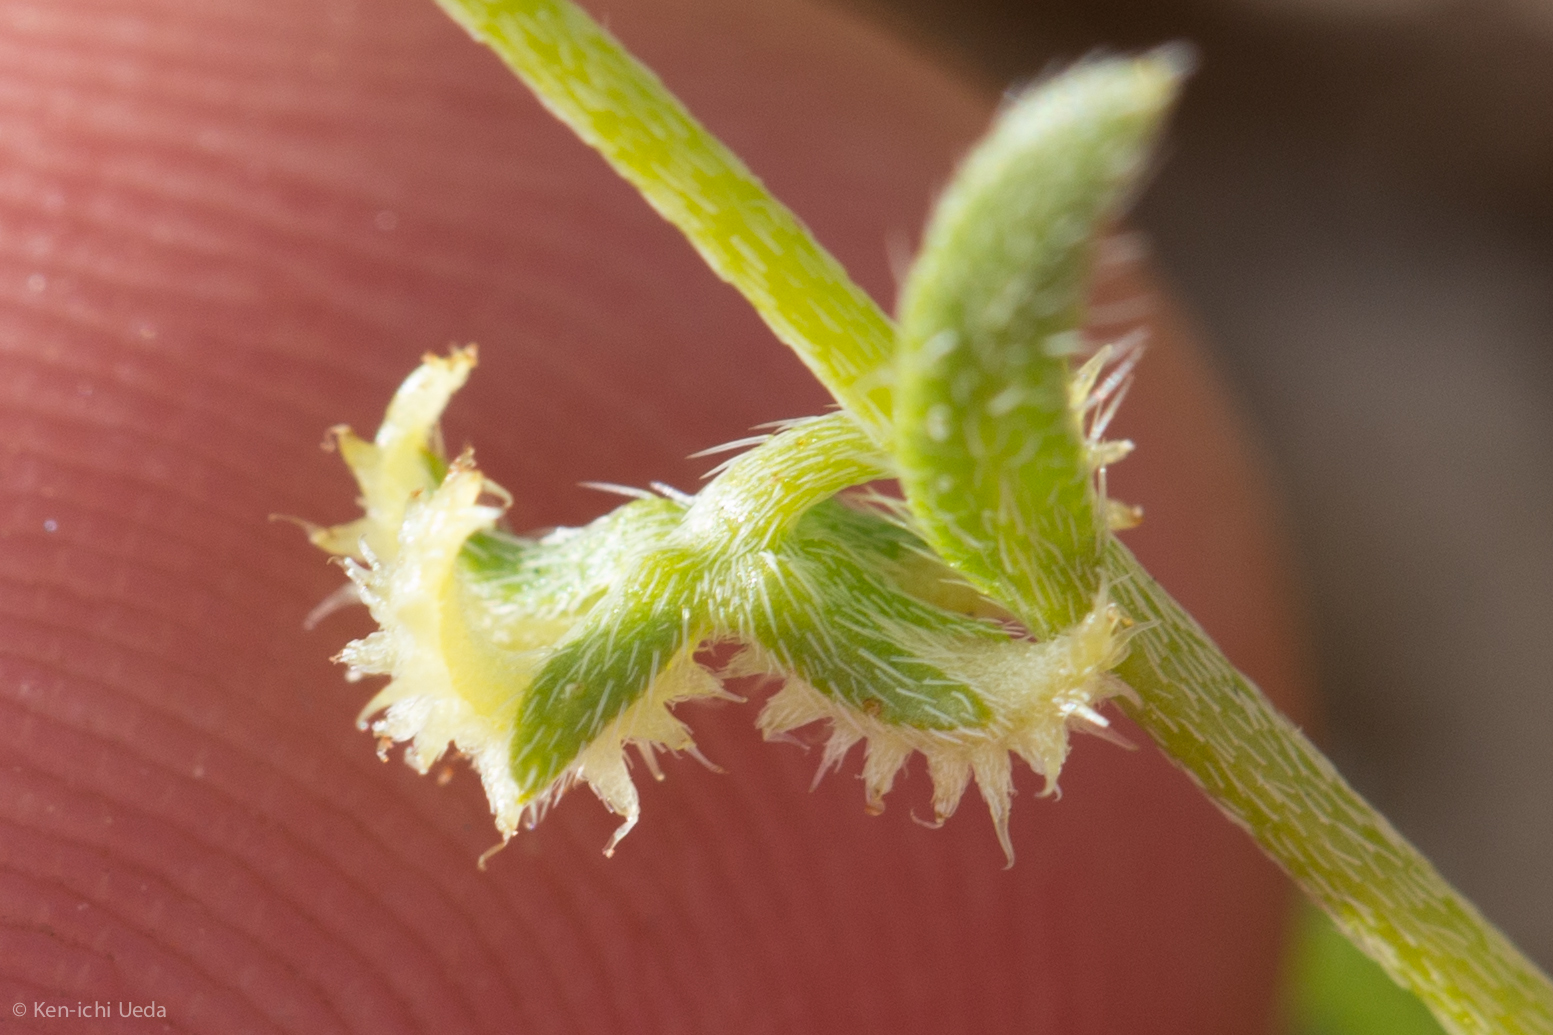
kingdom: Plantae
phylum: Tracheophyta
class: Magnoliopsida
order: Boraginales
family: Boraginaceae
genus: Pectocarya
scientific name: Pectocarya recurvata
